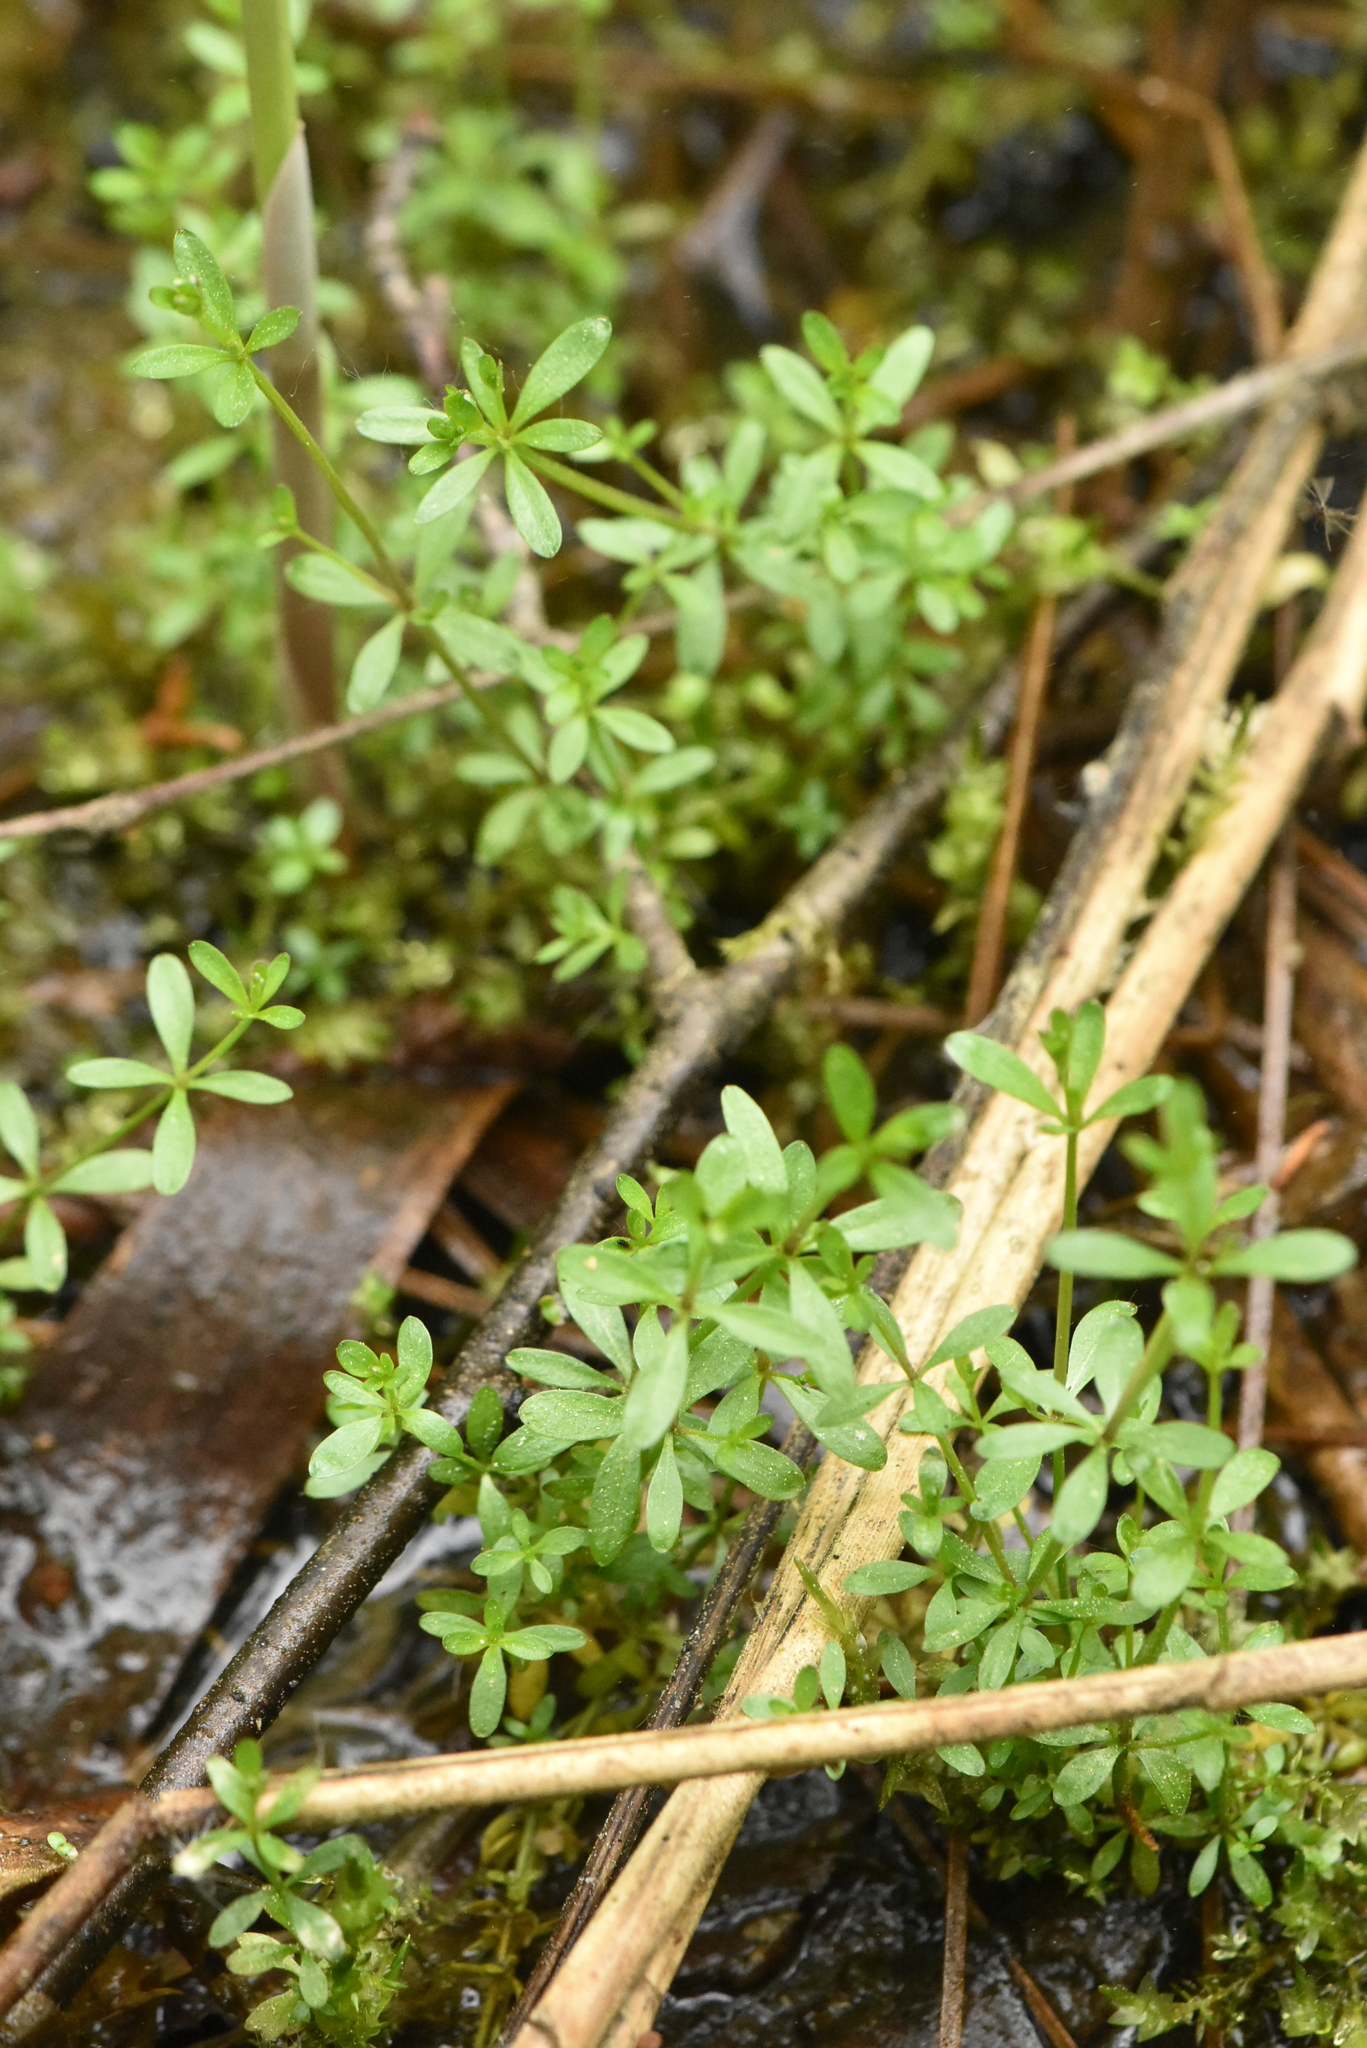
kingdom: Plantae
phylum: Tracheophyta
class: Magnoliopsida
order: Gentianales
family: Rubiaceae
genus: Galium
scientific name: Galium palustre
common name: Common marsh-bedstraw
